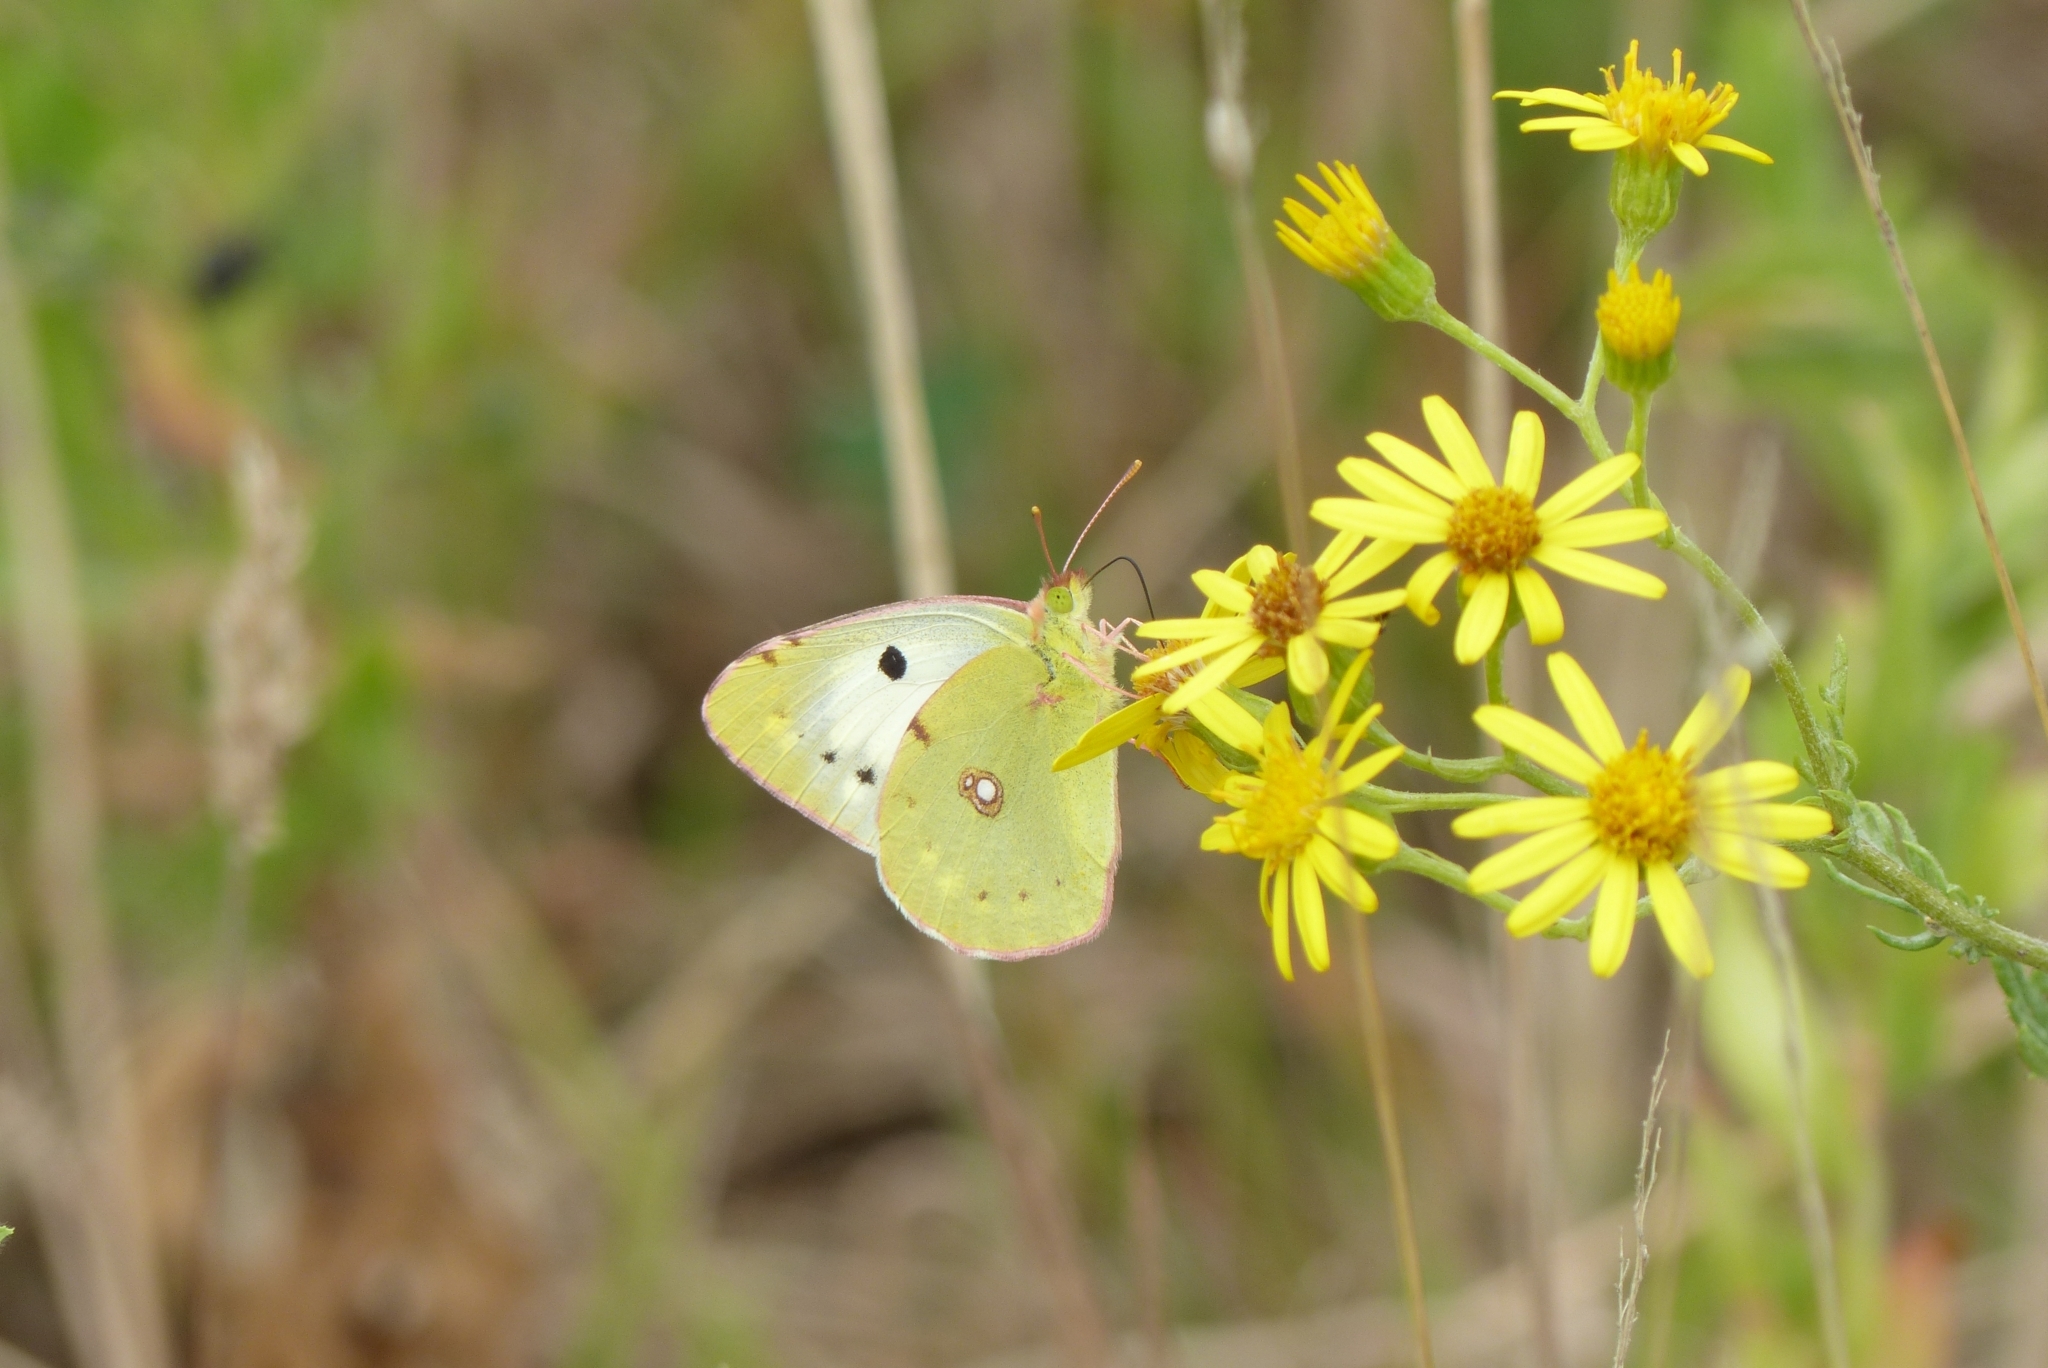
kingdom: Animalia
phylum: Arthropoda
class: Insecta
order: Lepidoptera
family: Pieridae
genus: Colias
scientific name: Colias croceus
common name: Clouded yellow
